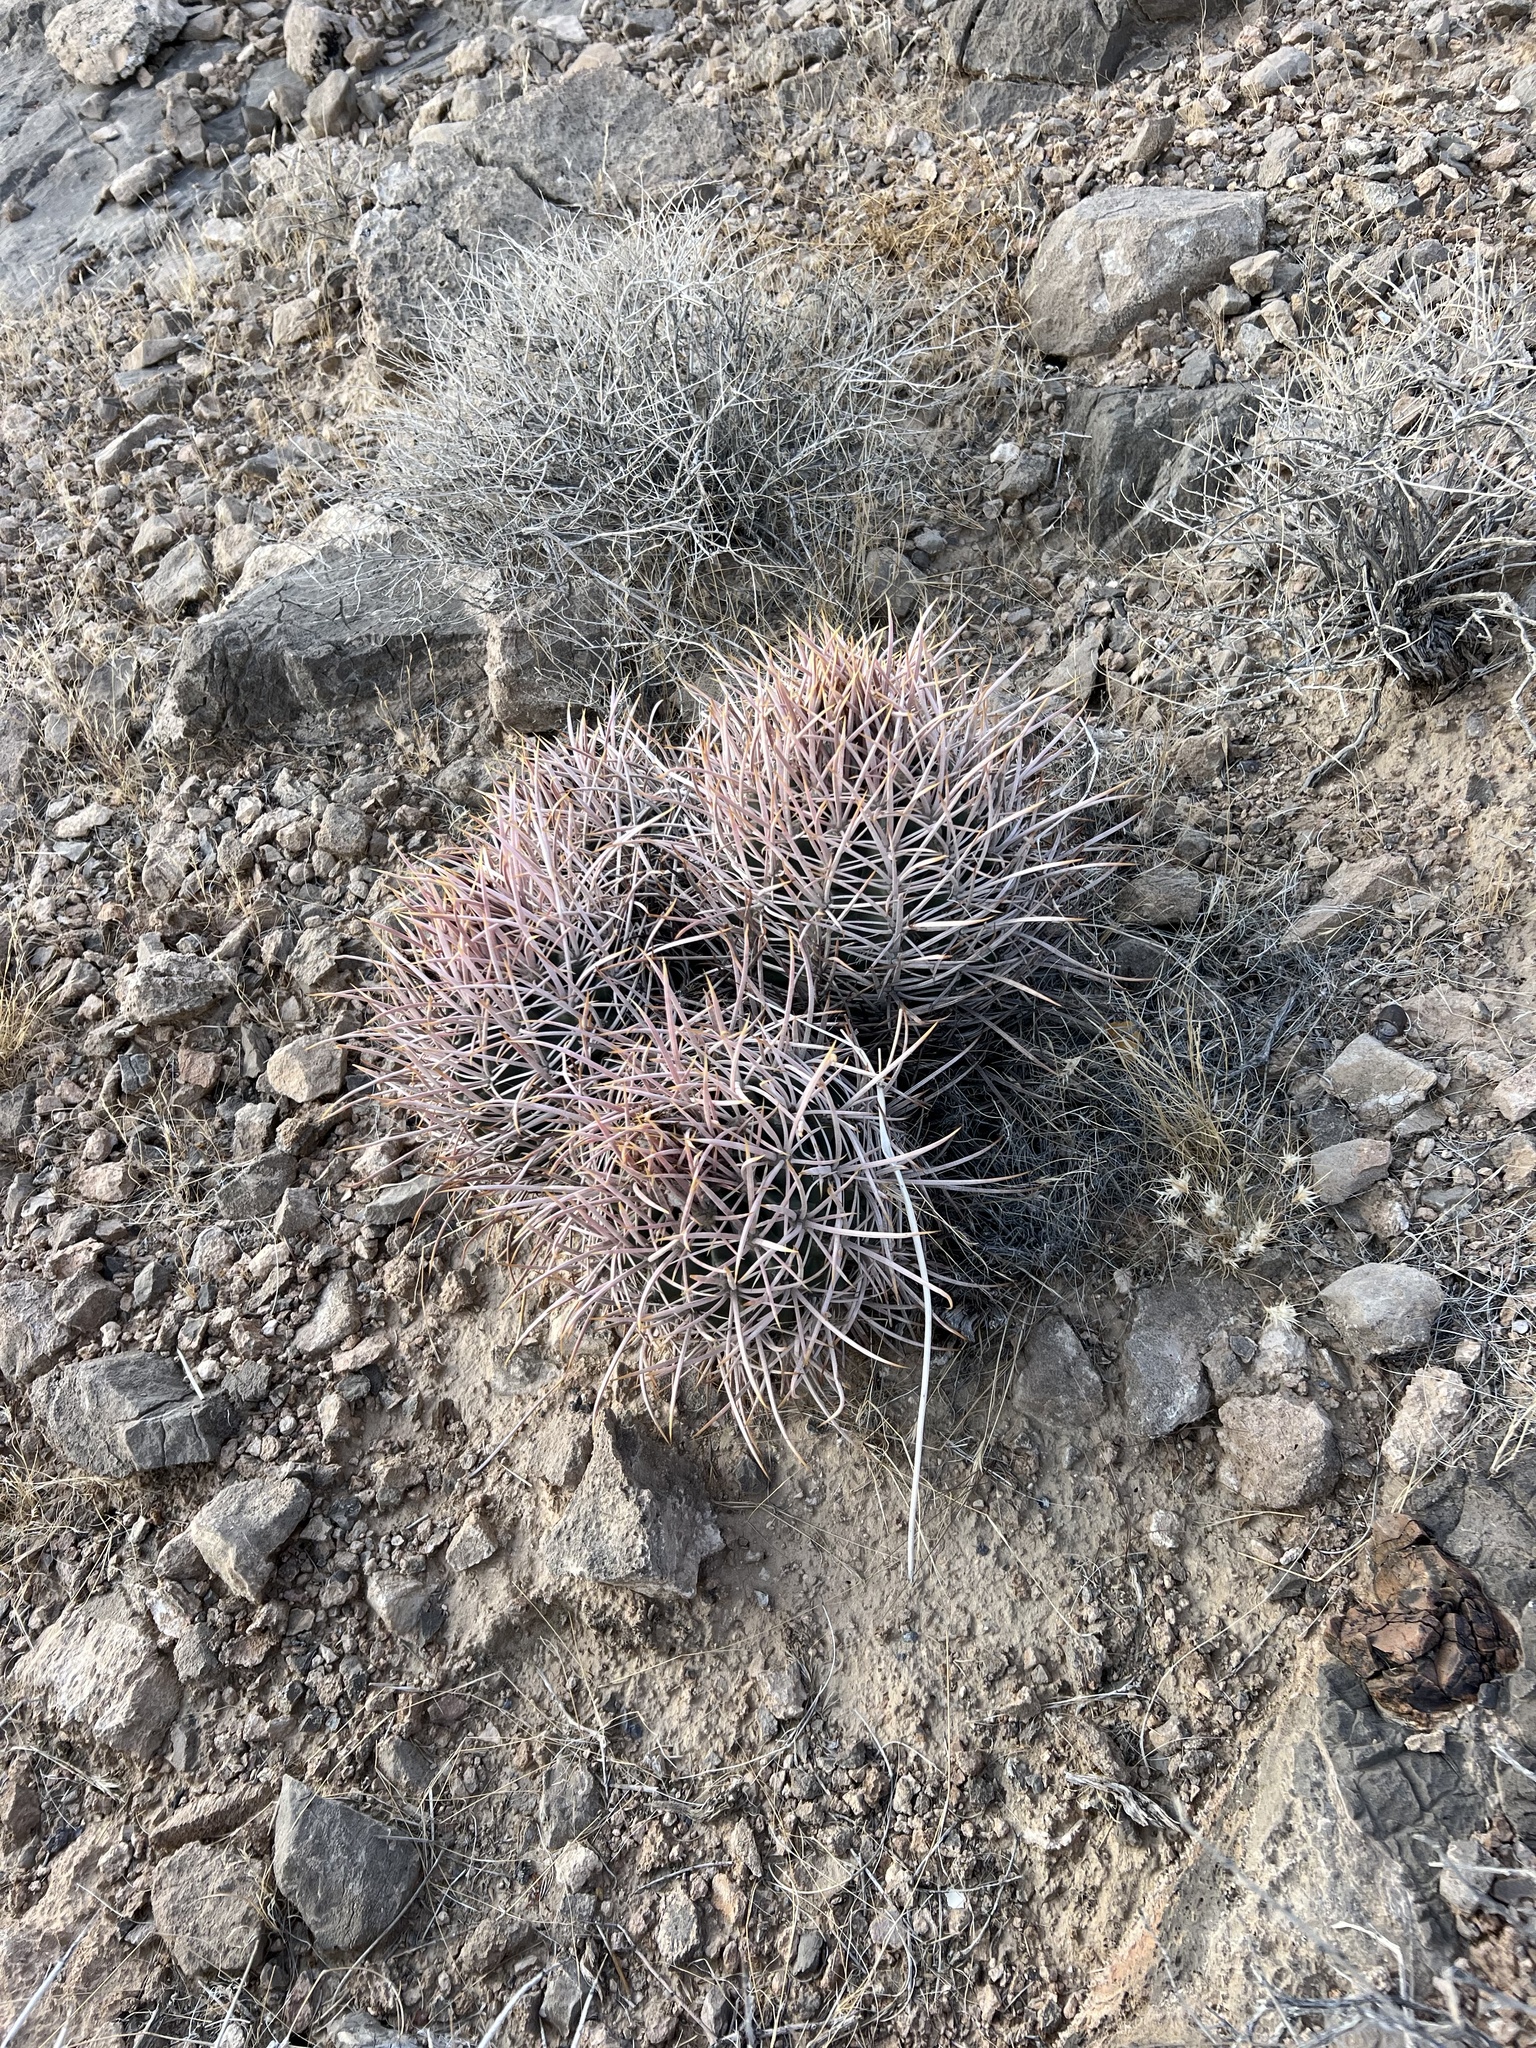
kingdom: Plantae
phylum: Tracheophyta
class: Magnoliopsida
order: Caryophyllales
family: Cactaceae
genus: Echinocactus
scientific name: Echinocactus polycephalus
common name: Cottontop cactus
